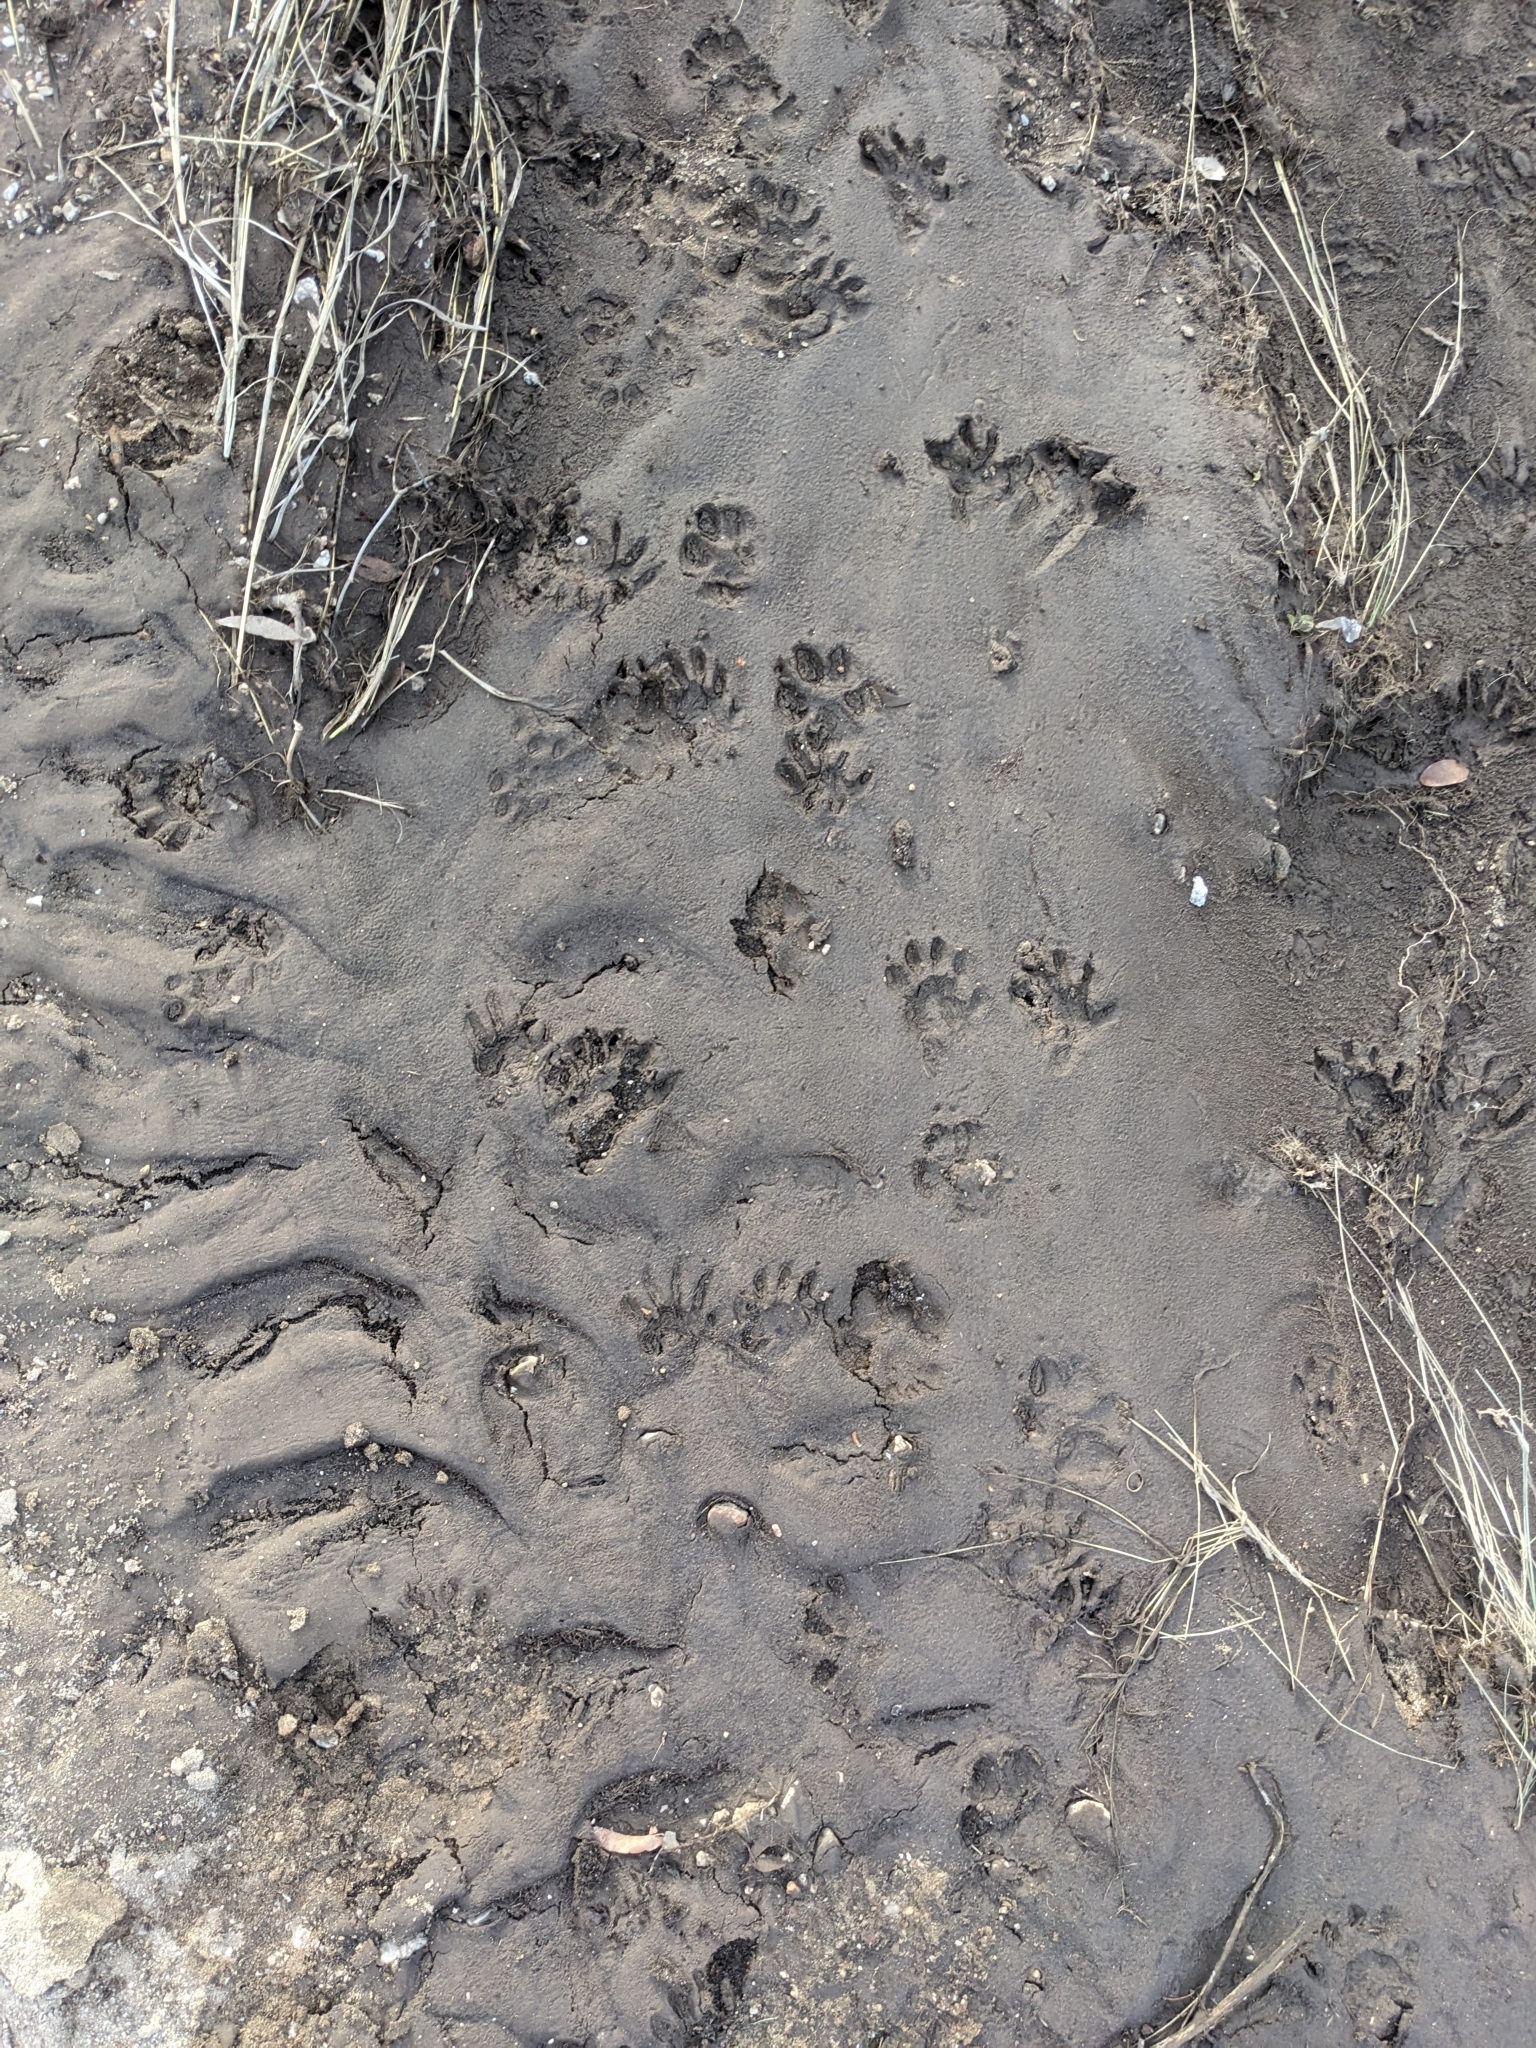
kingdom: Animalia
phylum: Chordata
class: Mammalia
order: Carnivora
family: Procyonidae
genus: Procyon
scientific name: Procyon lotor
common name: Raccoon
